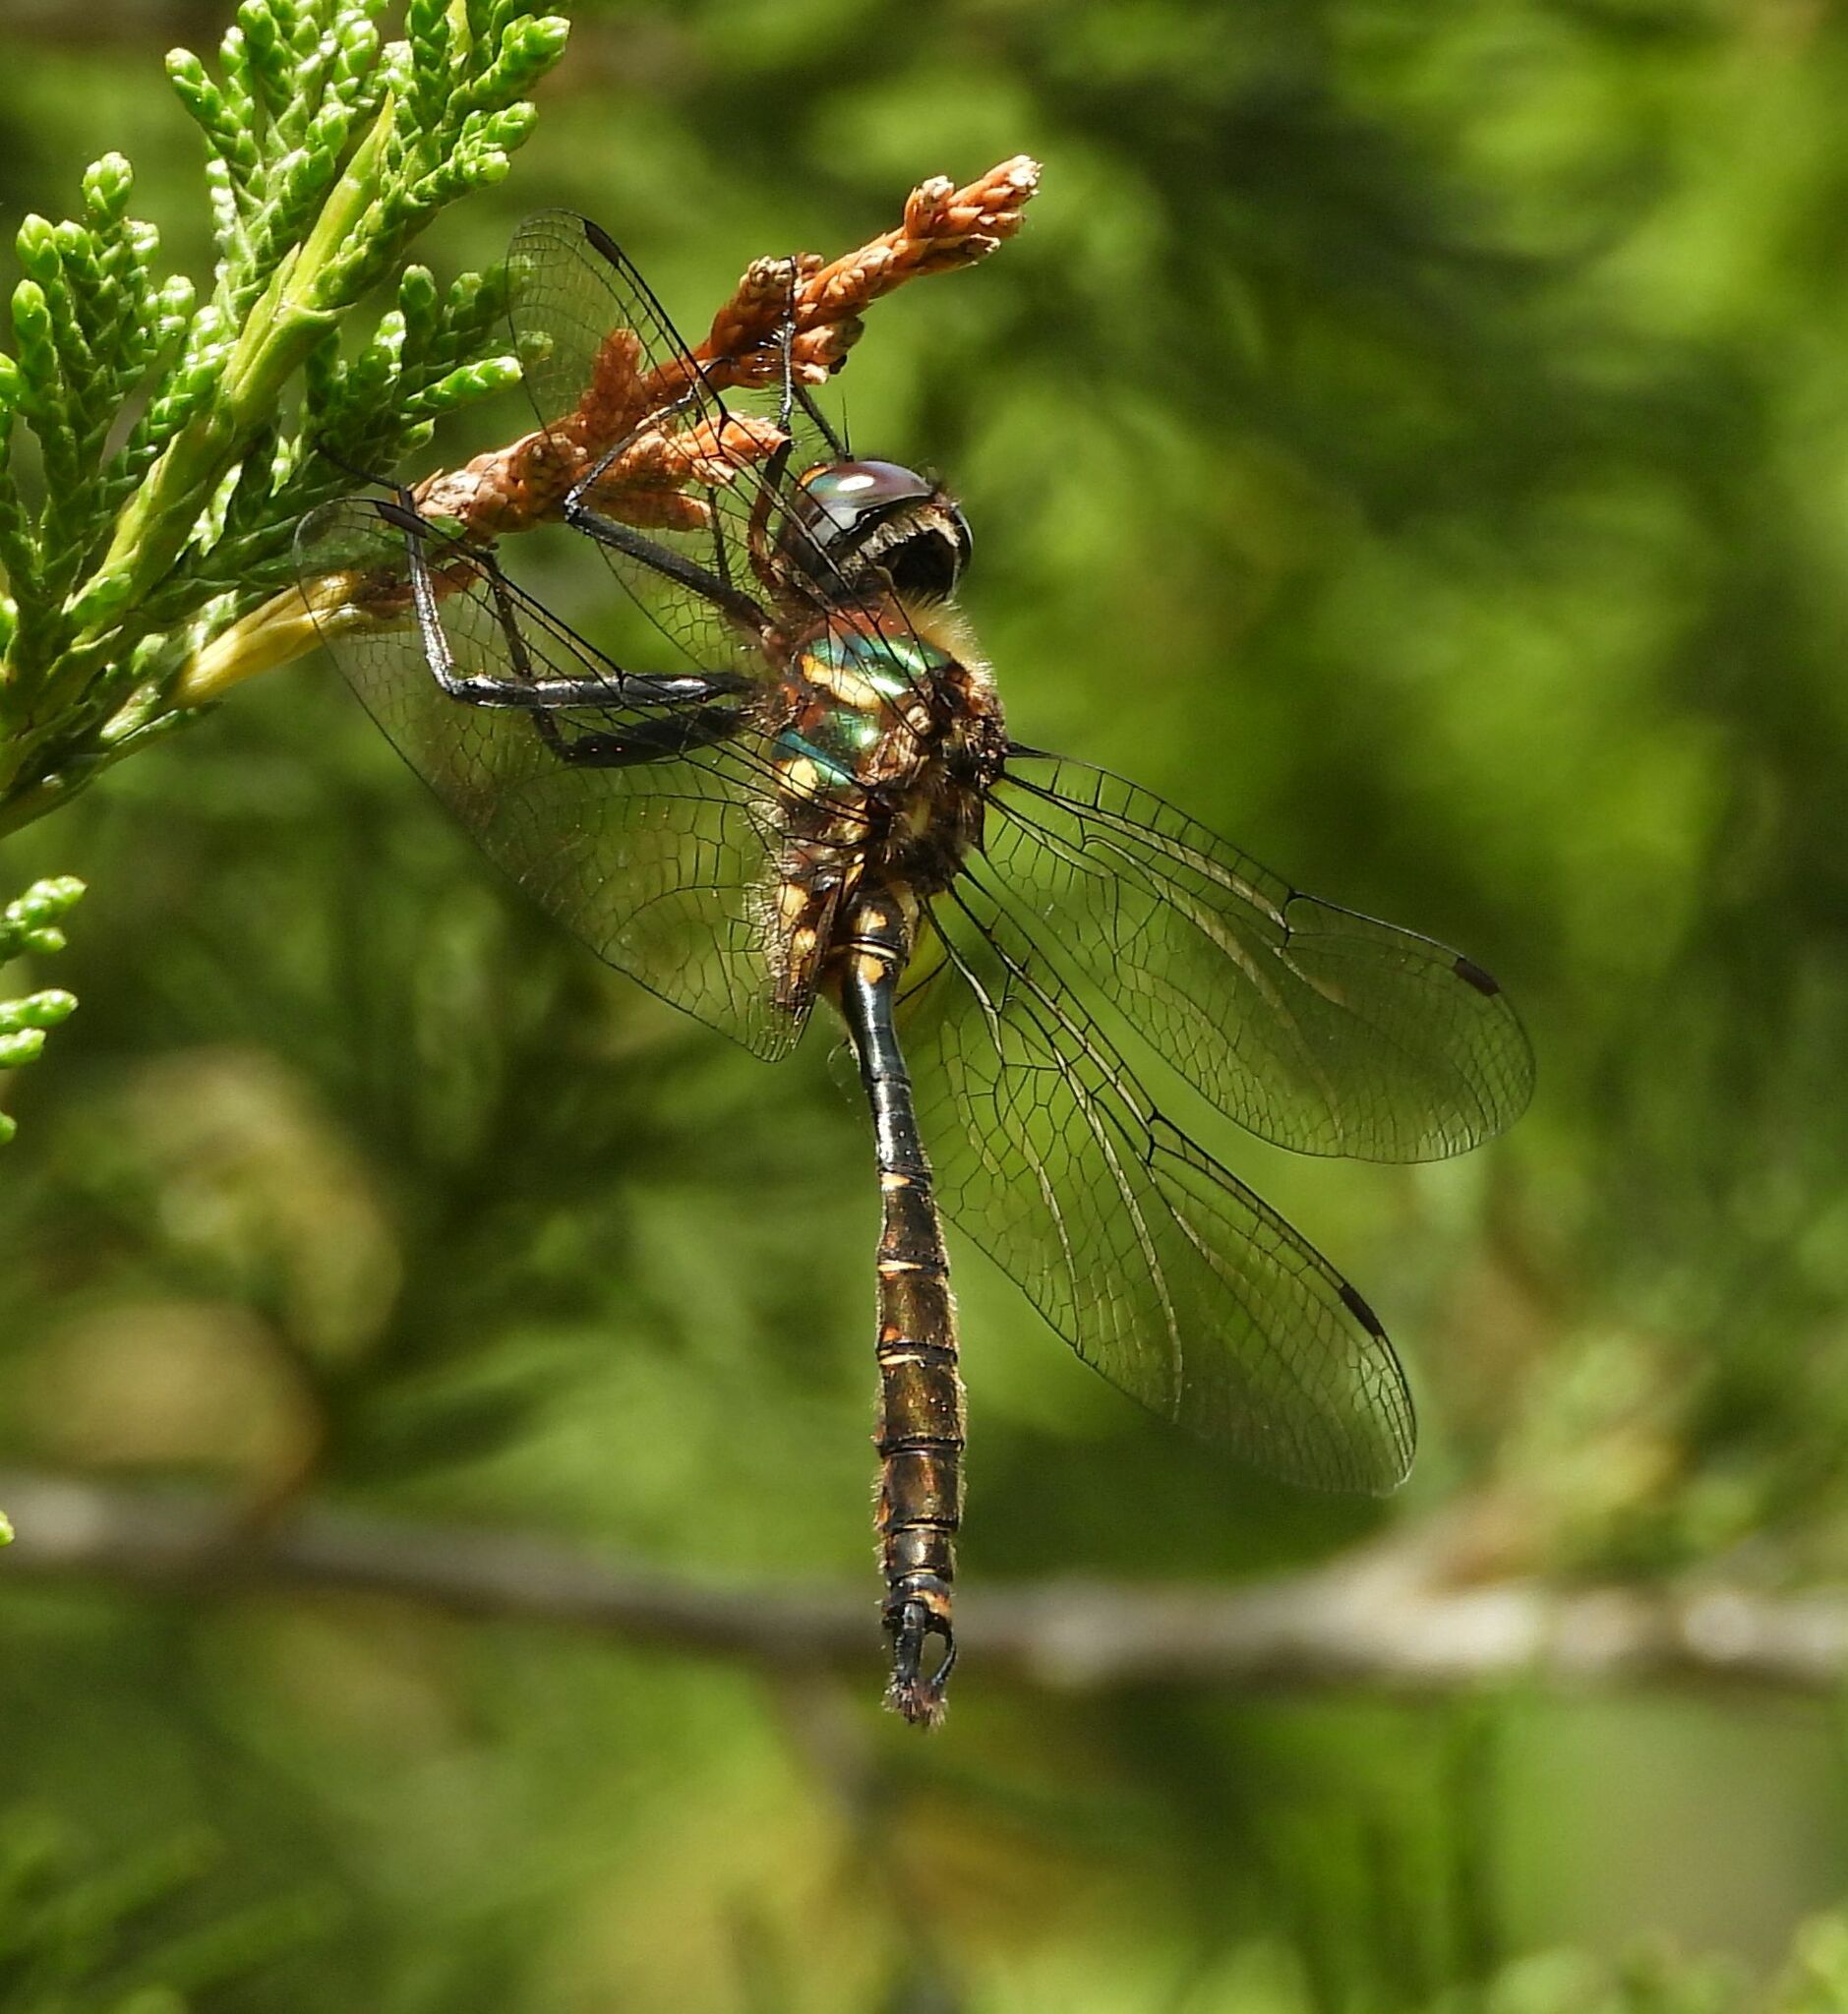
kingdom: Animalia
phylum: Arthropoda
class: Insecta
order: Odonata
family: Corduliidae
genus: Somatochlora
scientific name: Somatochlora walshii
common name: Brush-tipped emerald
